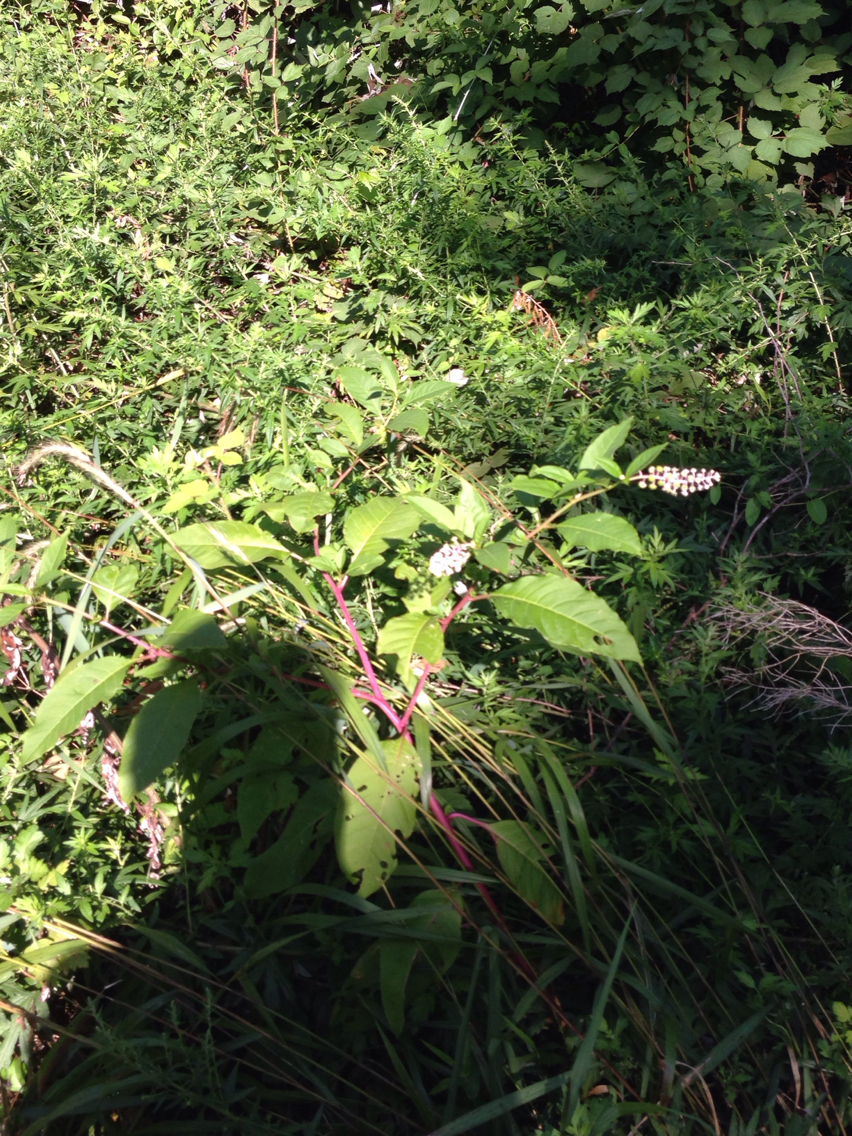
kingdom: Plantae
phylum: Tracheophyta
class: Magnoliopsida
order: Caryophyllales
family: Phytolaccaceae
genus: Phytolacca
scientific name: Phytolacca americana
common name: American pokeweed
